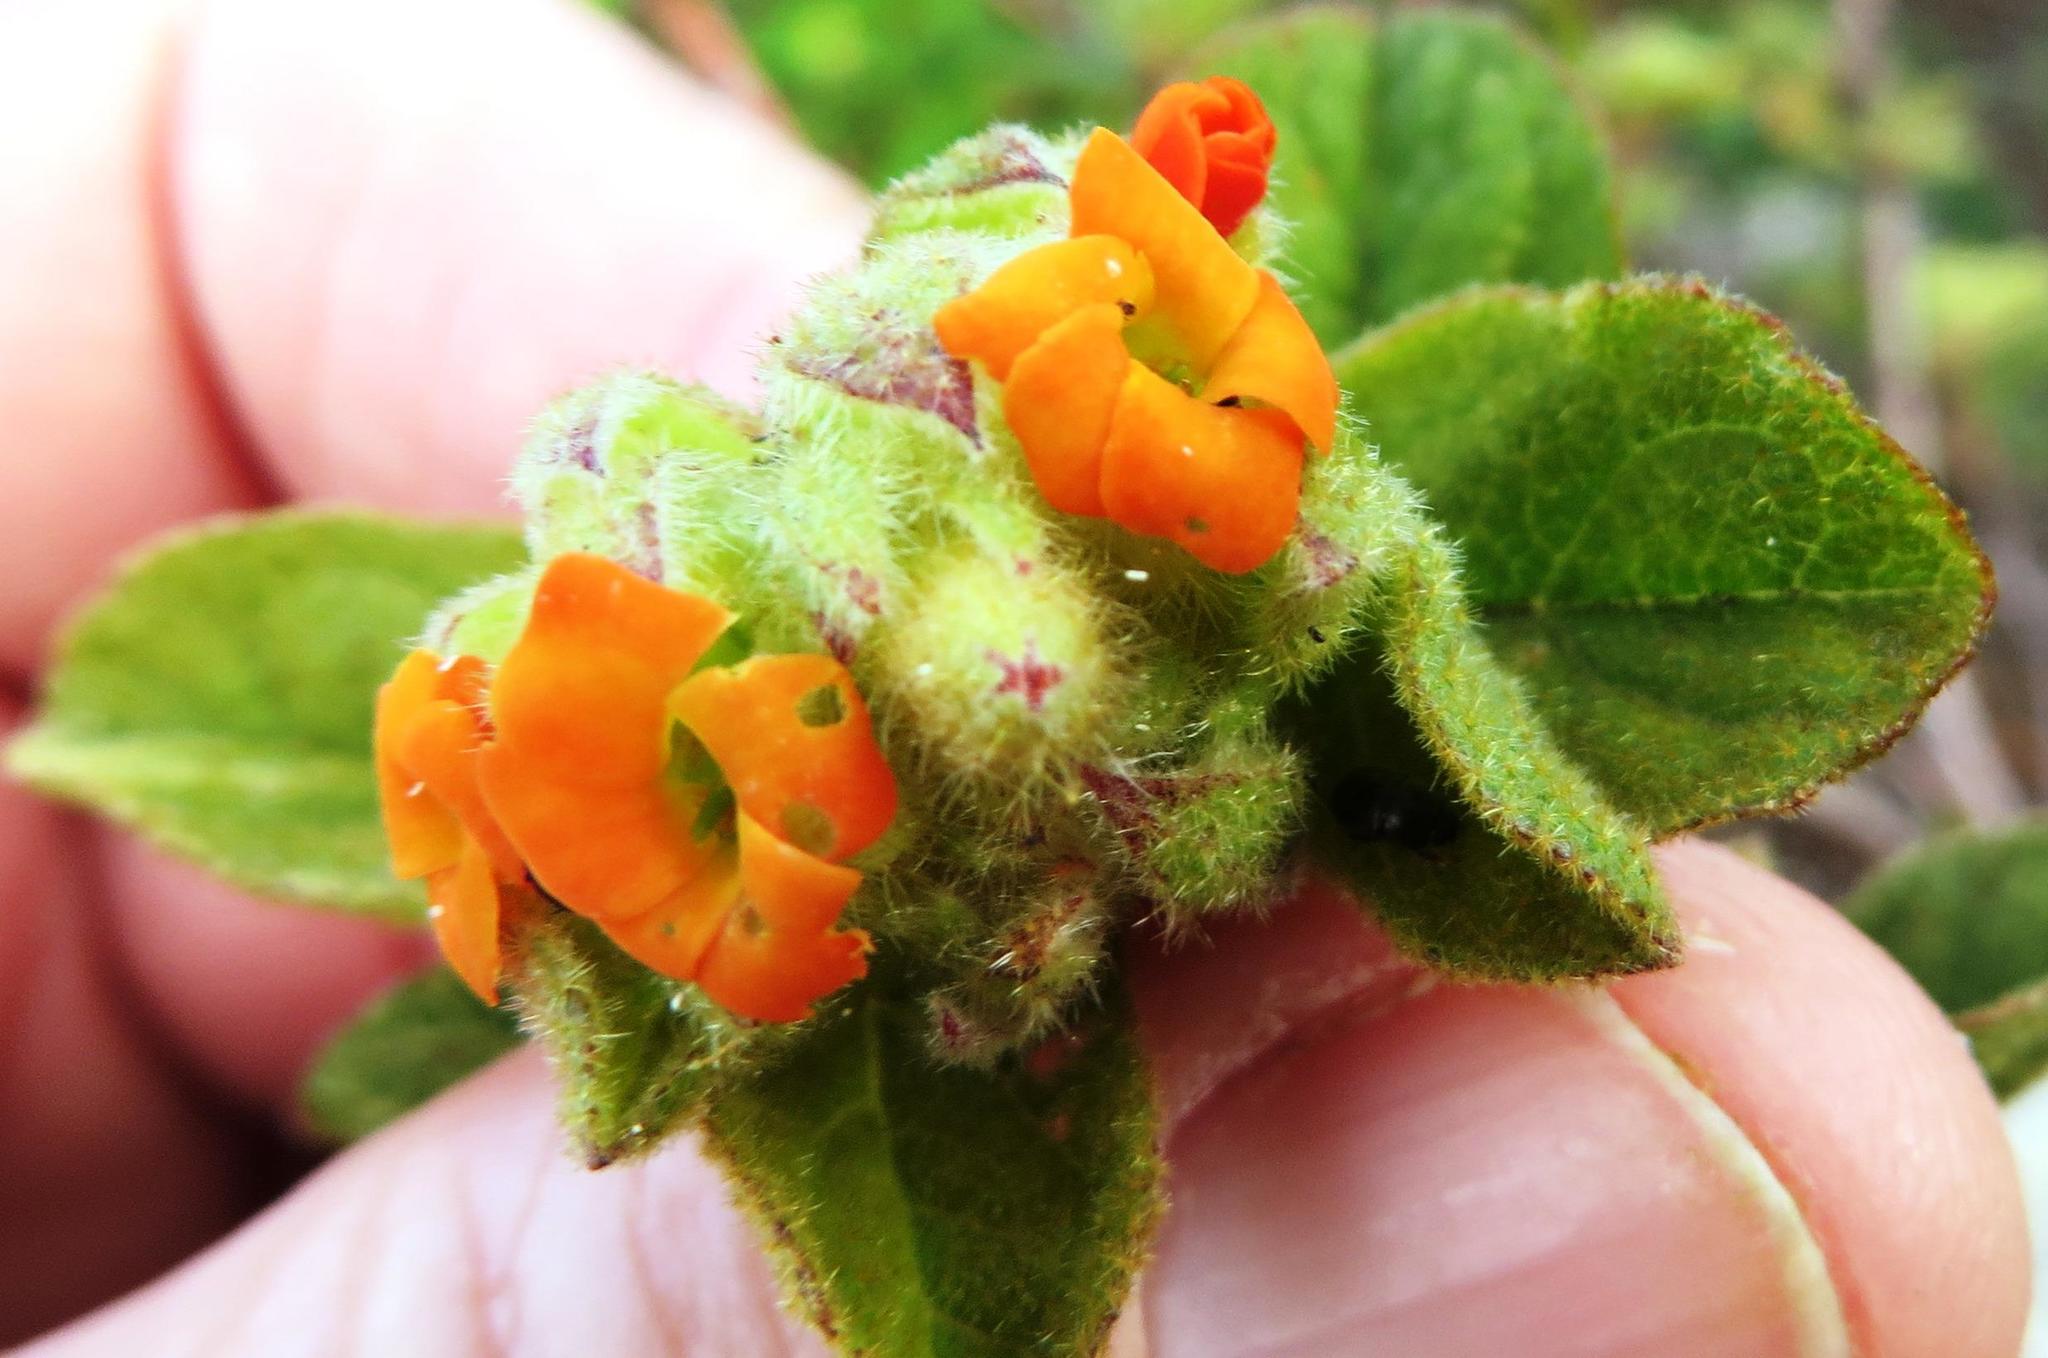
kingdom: Plantae
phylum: Tracheophyta
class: Magnoliopsida
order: Malvales
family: Malvaceae
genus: Hermannia
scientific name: Hermannia salviifolia
